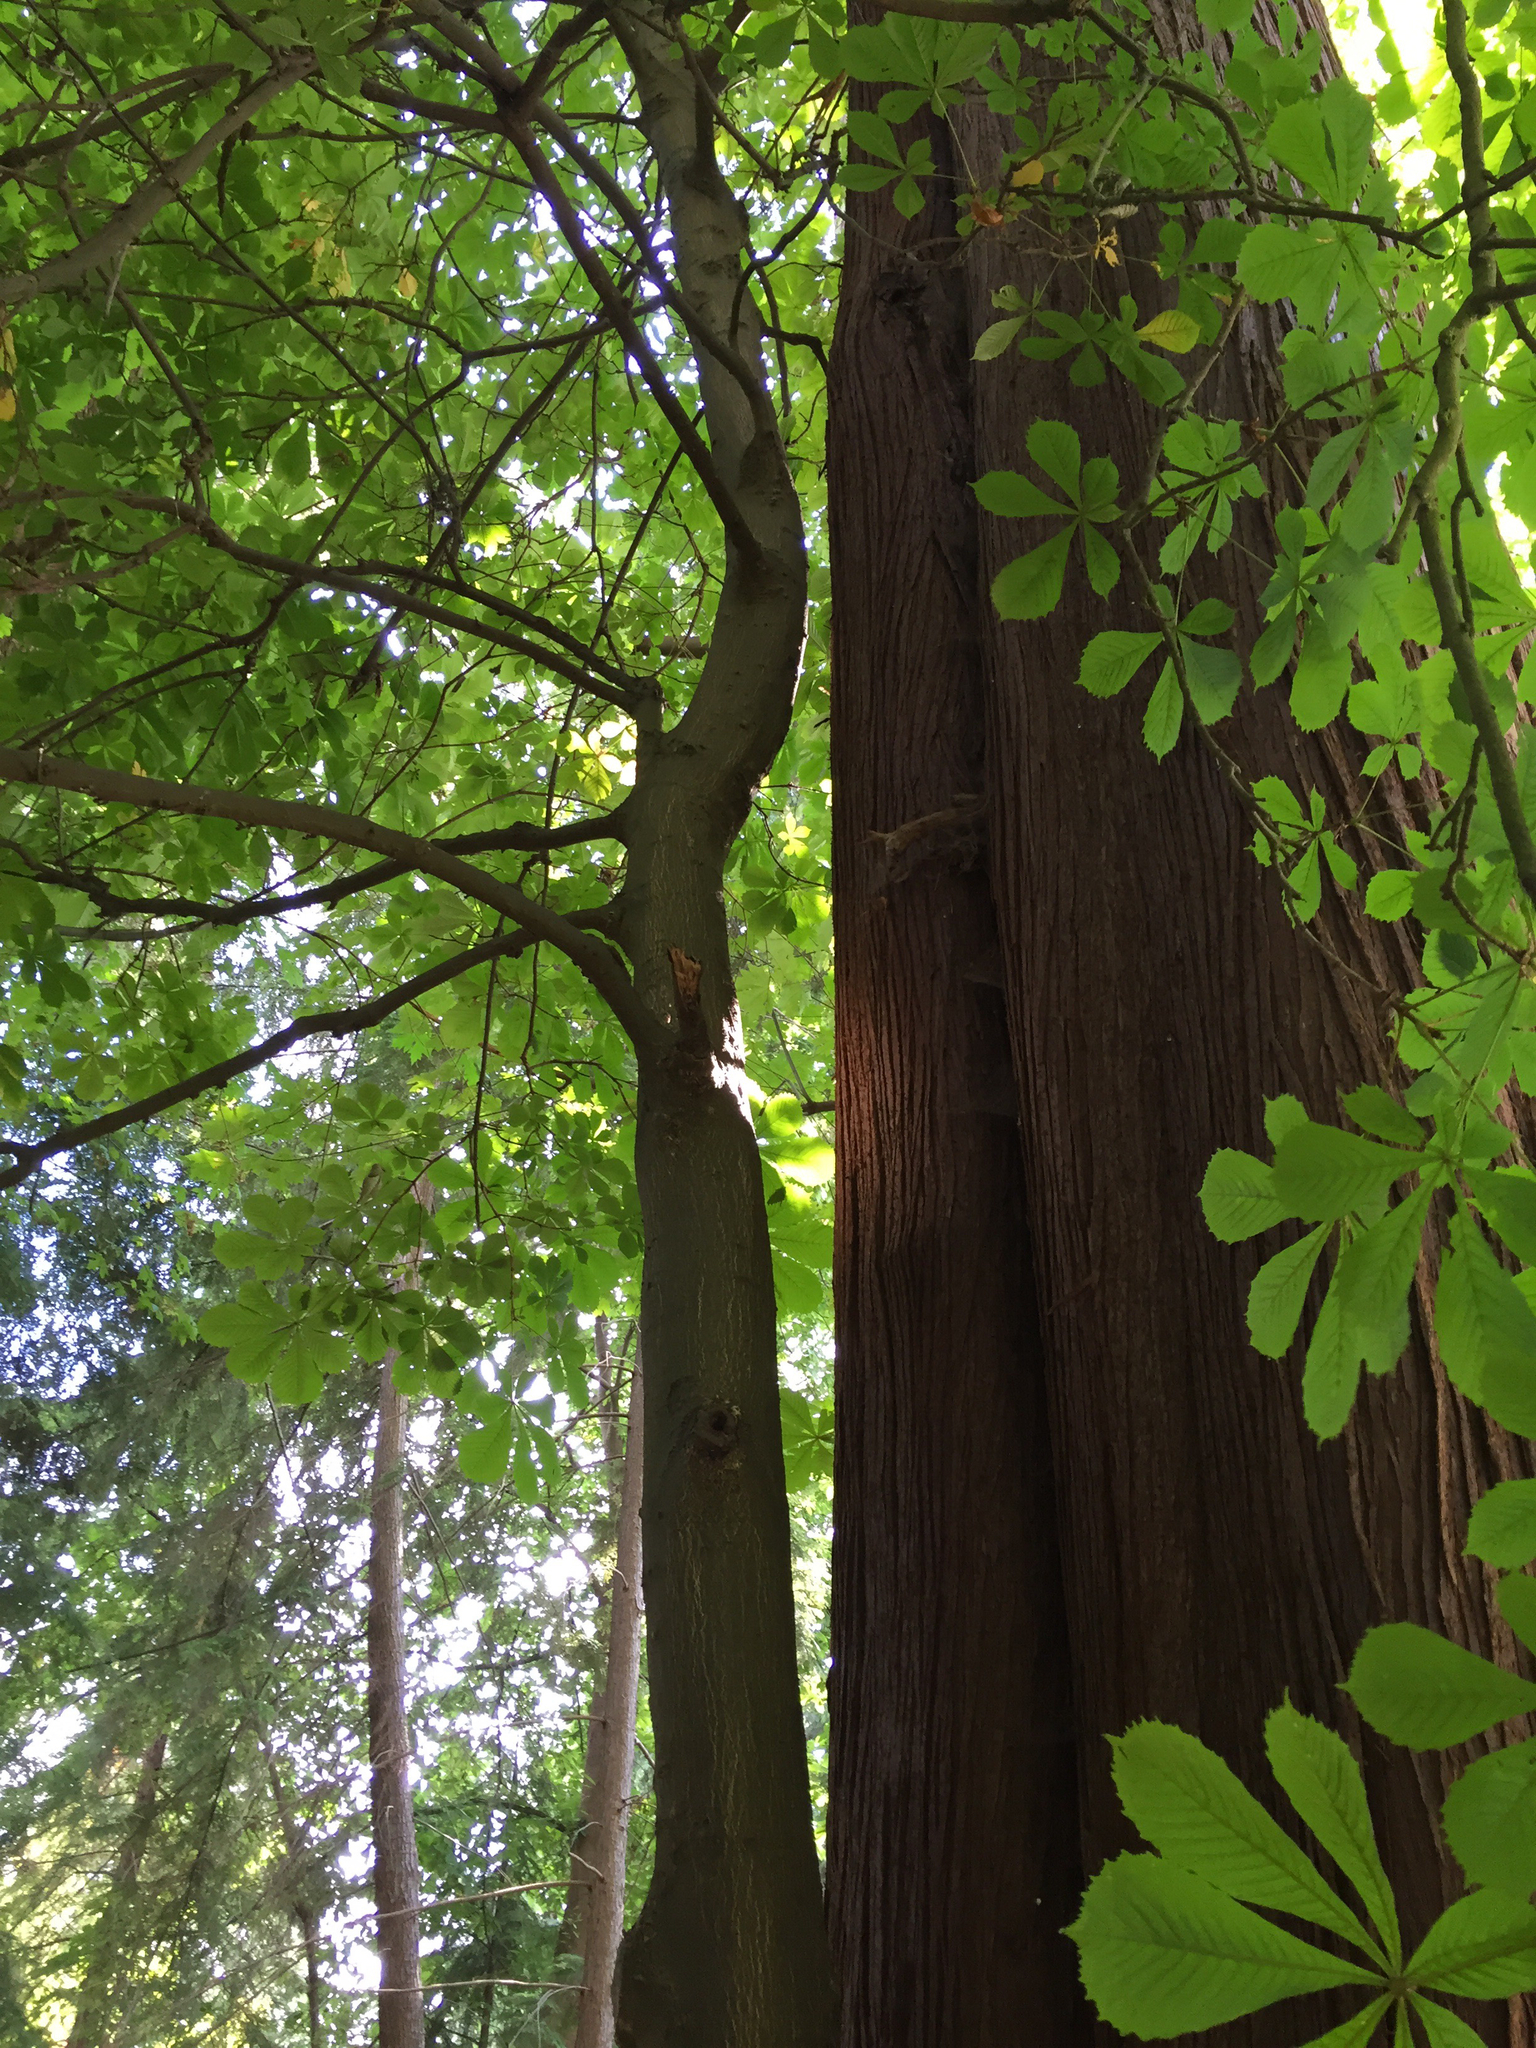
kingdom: Plantae
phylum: Tracheophyta
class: Magnoliopsida
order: Sapindales
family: Sapindaceae
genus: Aesculus
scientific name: Aesculus hippocastanum
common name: Horse-chestnut
